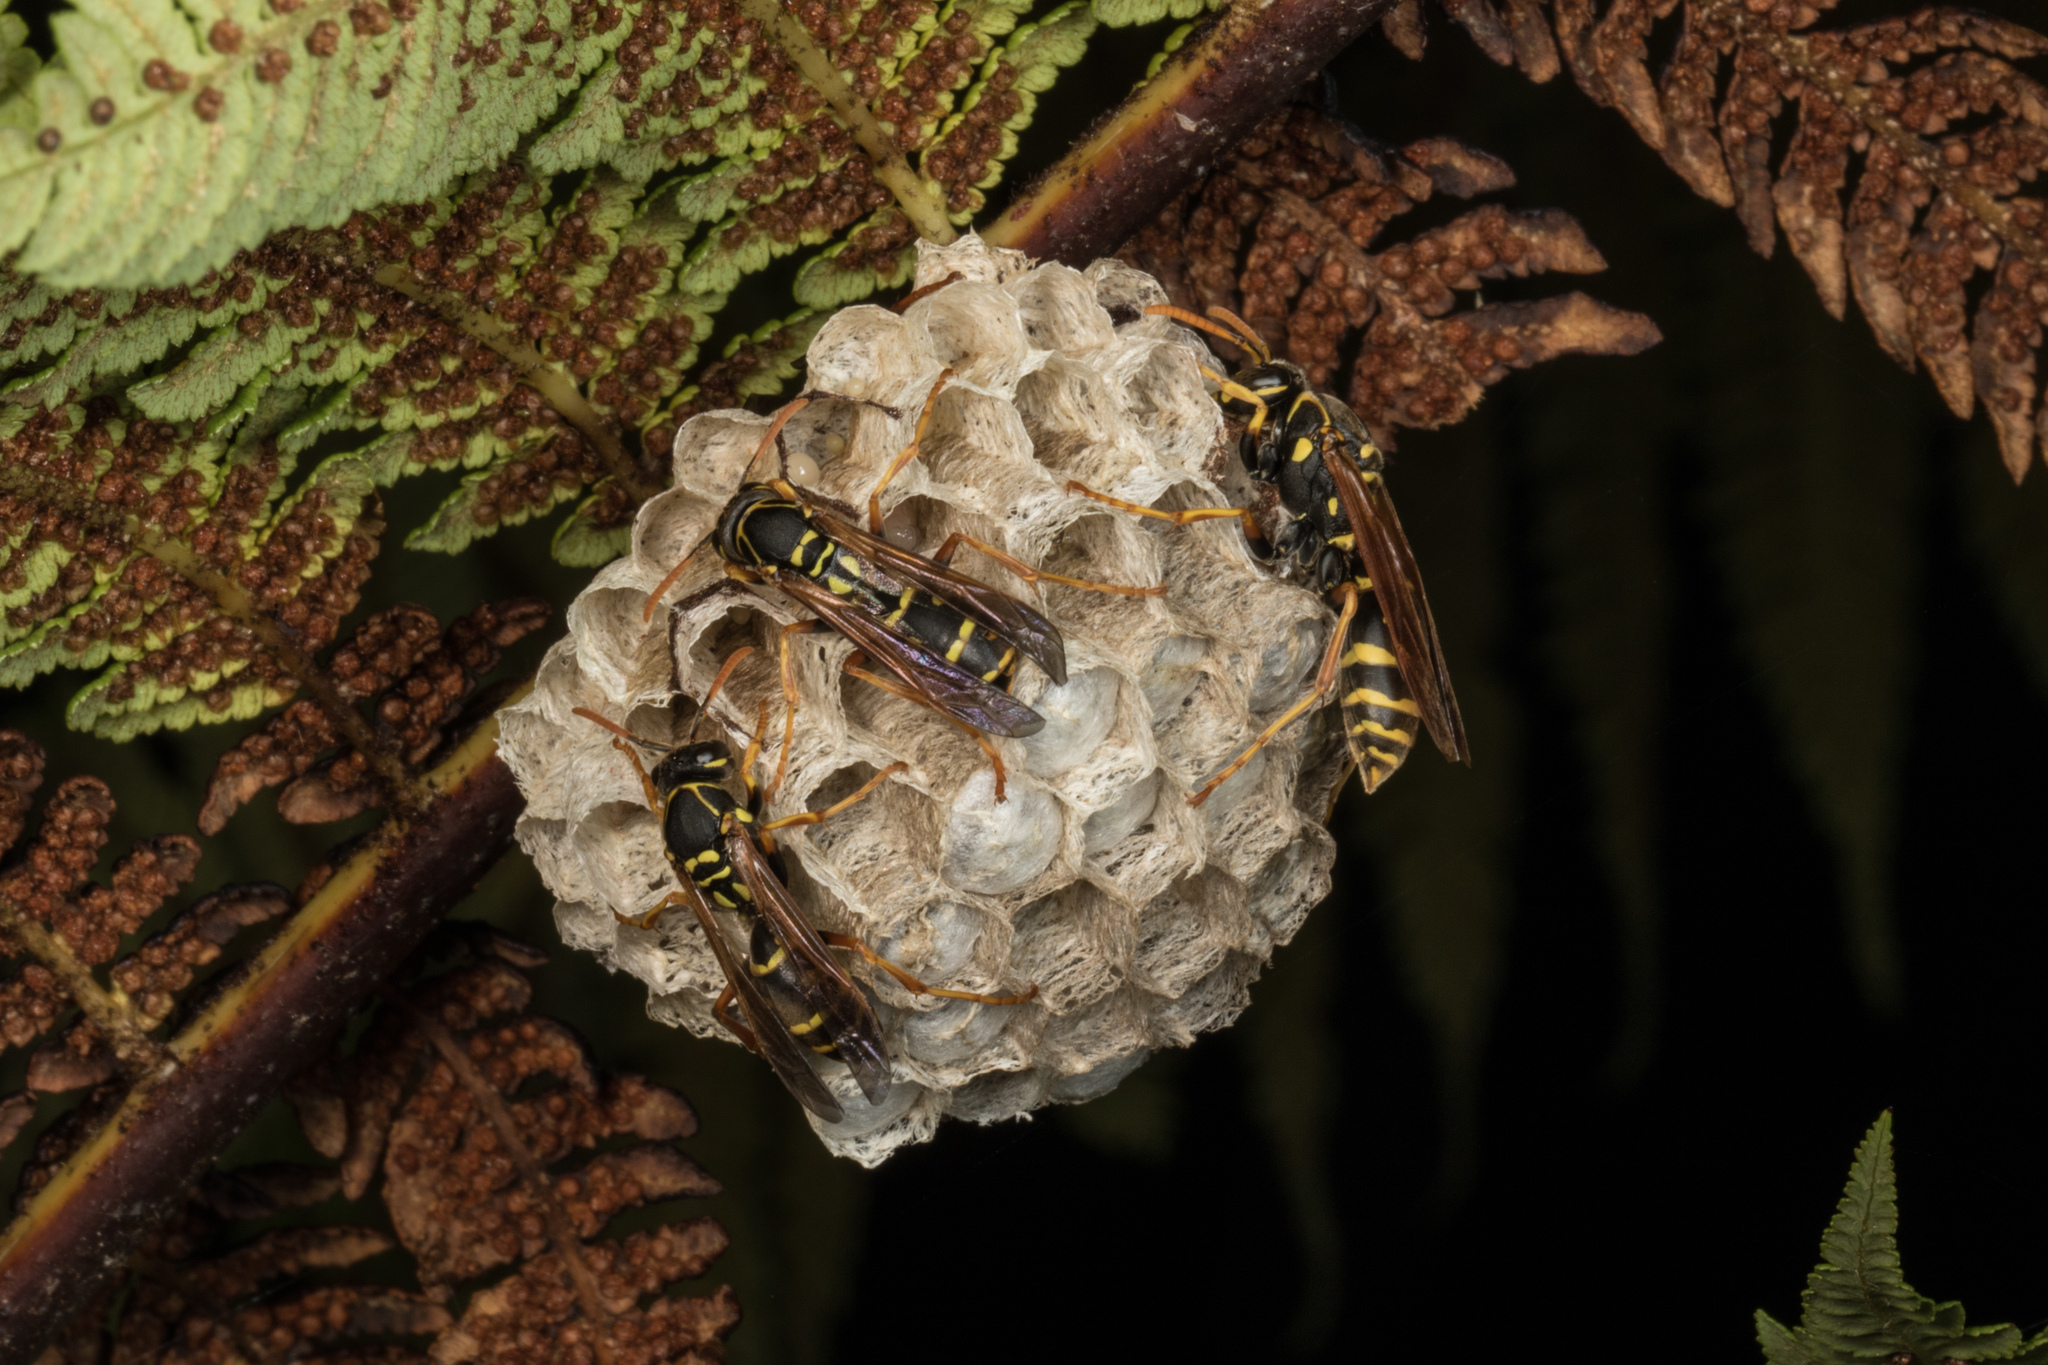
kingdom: Animalia
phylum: Arthropoda
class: Insecta
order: Hymenoptera
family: Eumenidae
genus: Polistes
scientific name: Polistes chinensis
